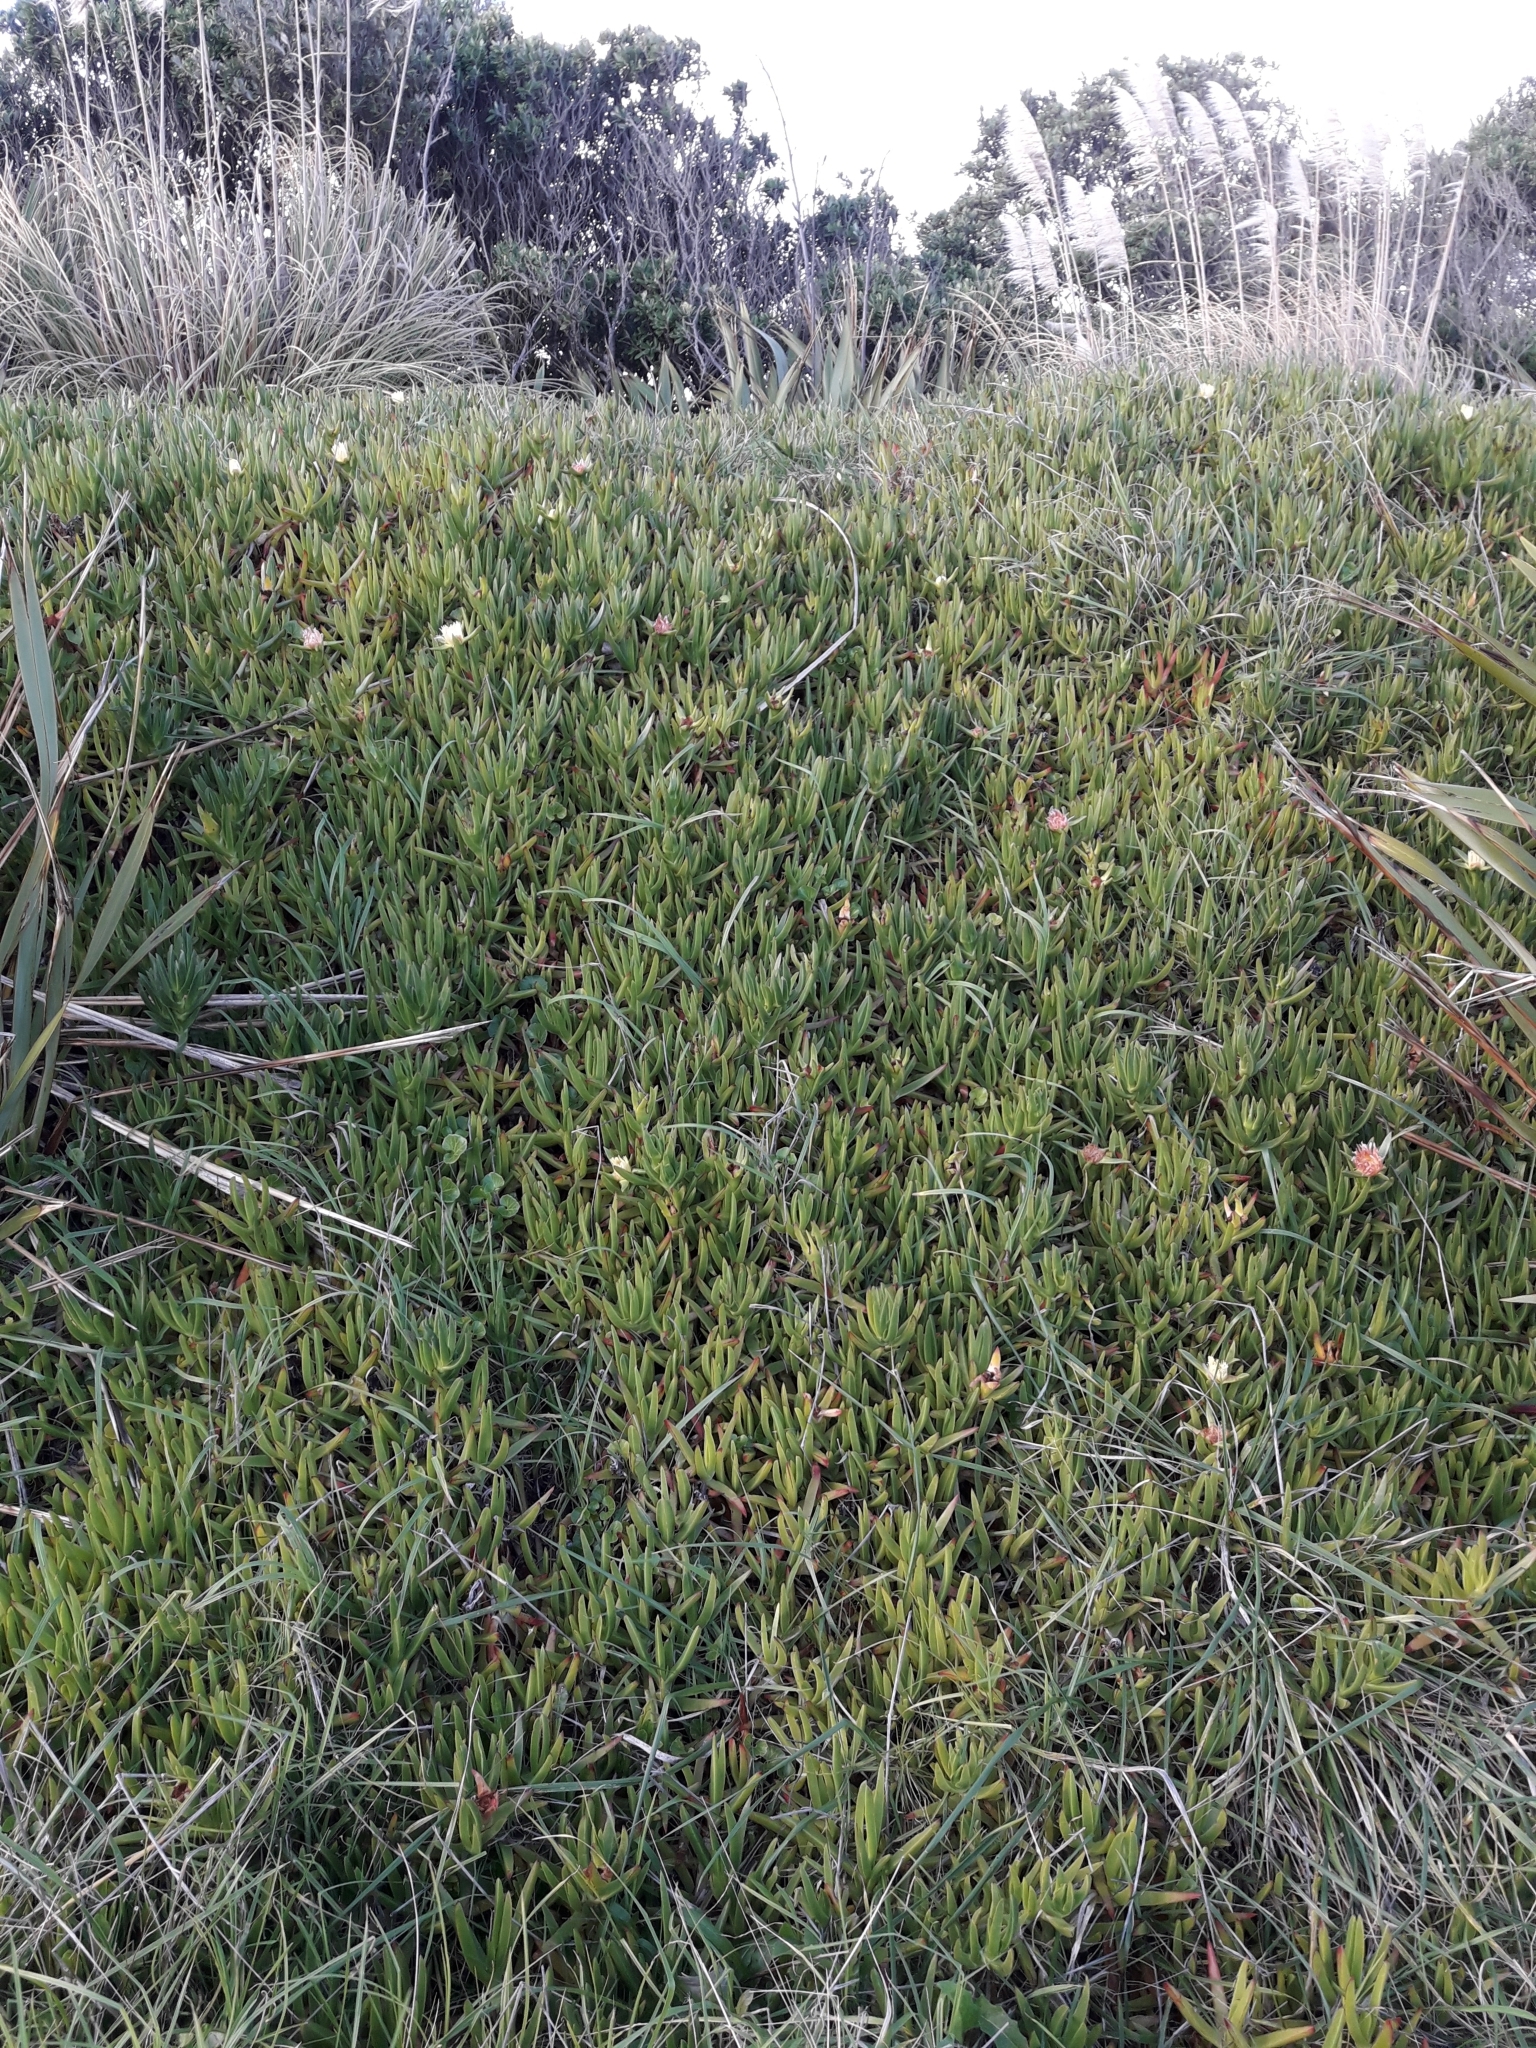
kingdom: Plantae
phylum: Tracheophyta
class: Magnoliopsida
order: Caryophyllales
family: Aizoaceae
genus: Carpobrotus
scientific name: Carpobrotus edulis
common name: Hottentot-fig
